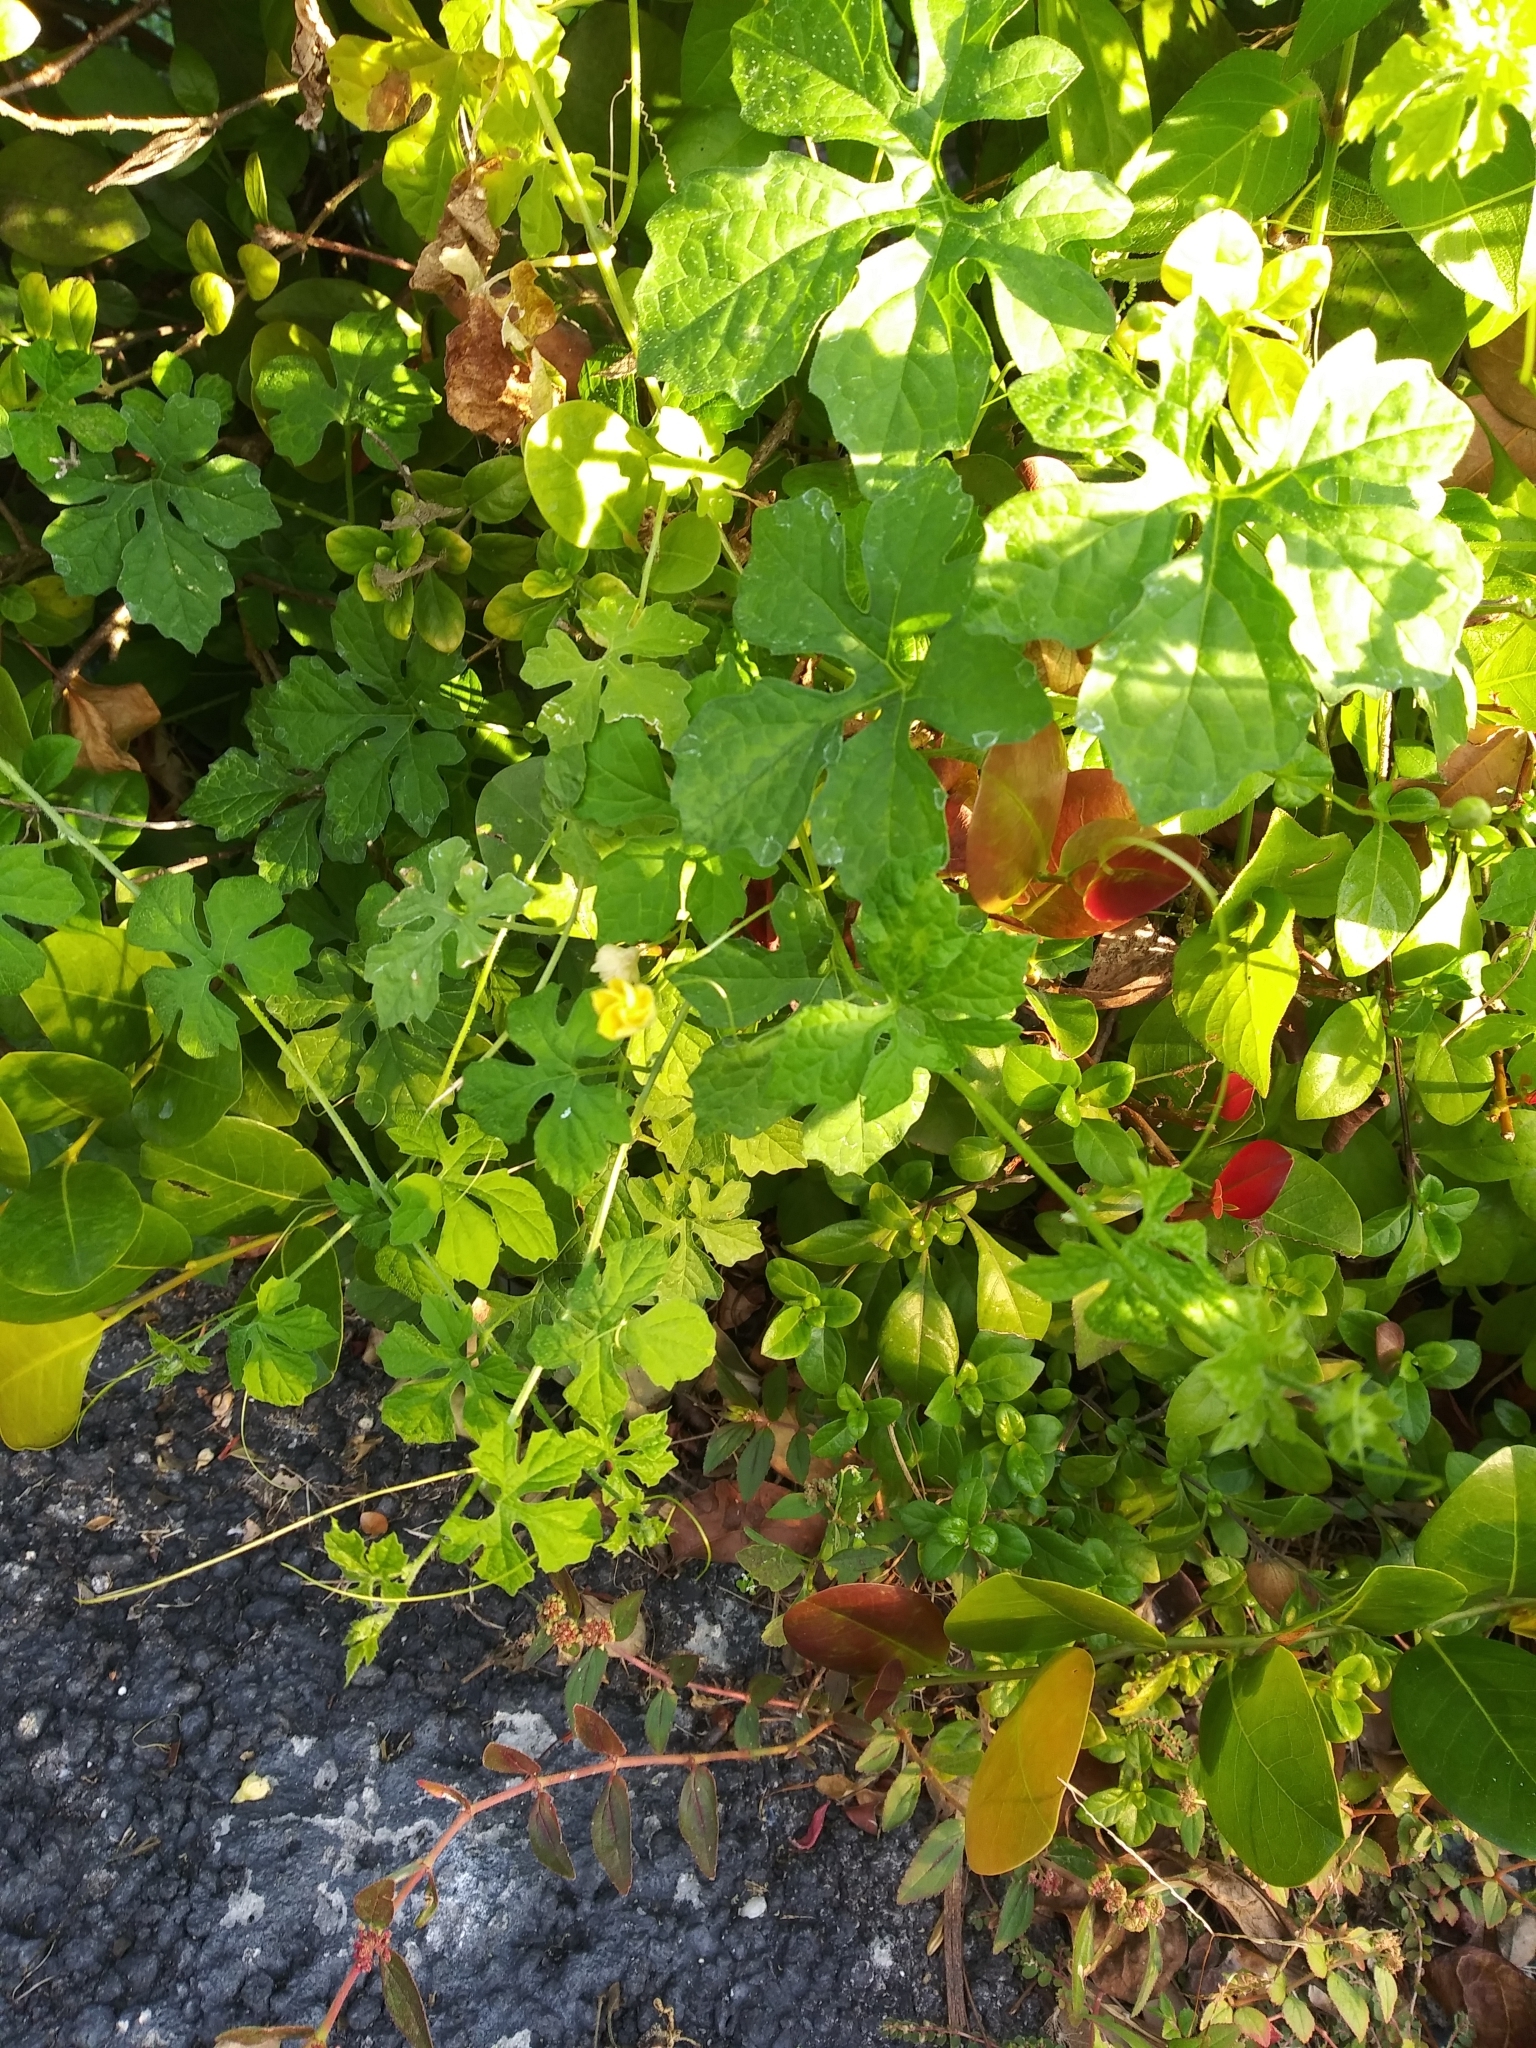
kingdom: Plantae
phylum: Tracheophyta
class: Magnoliopsida
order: Cucurbitales
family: Cucurbitaceae
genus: Momordica
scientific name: Momordica charantia
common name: Balsampear
